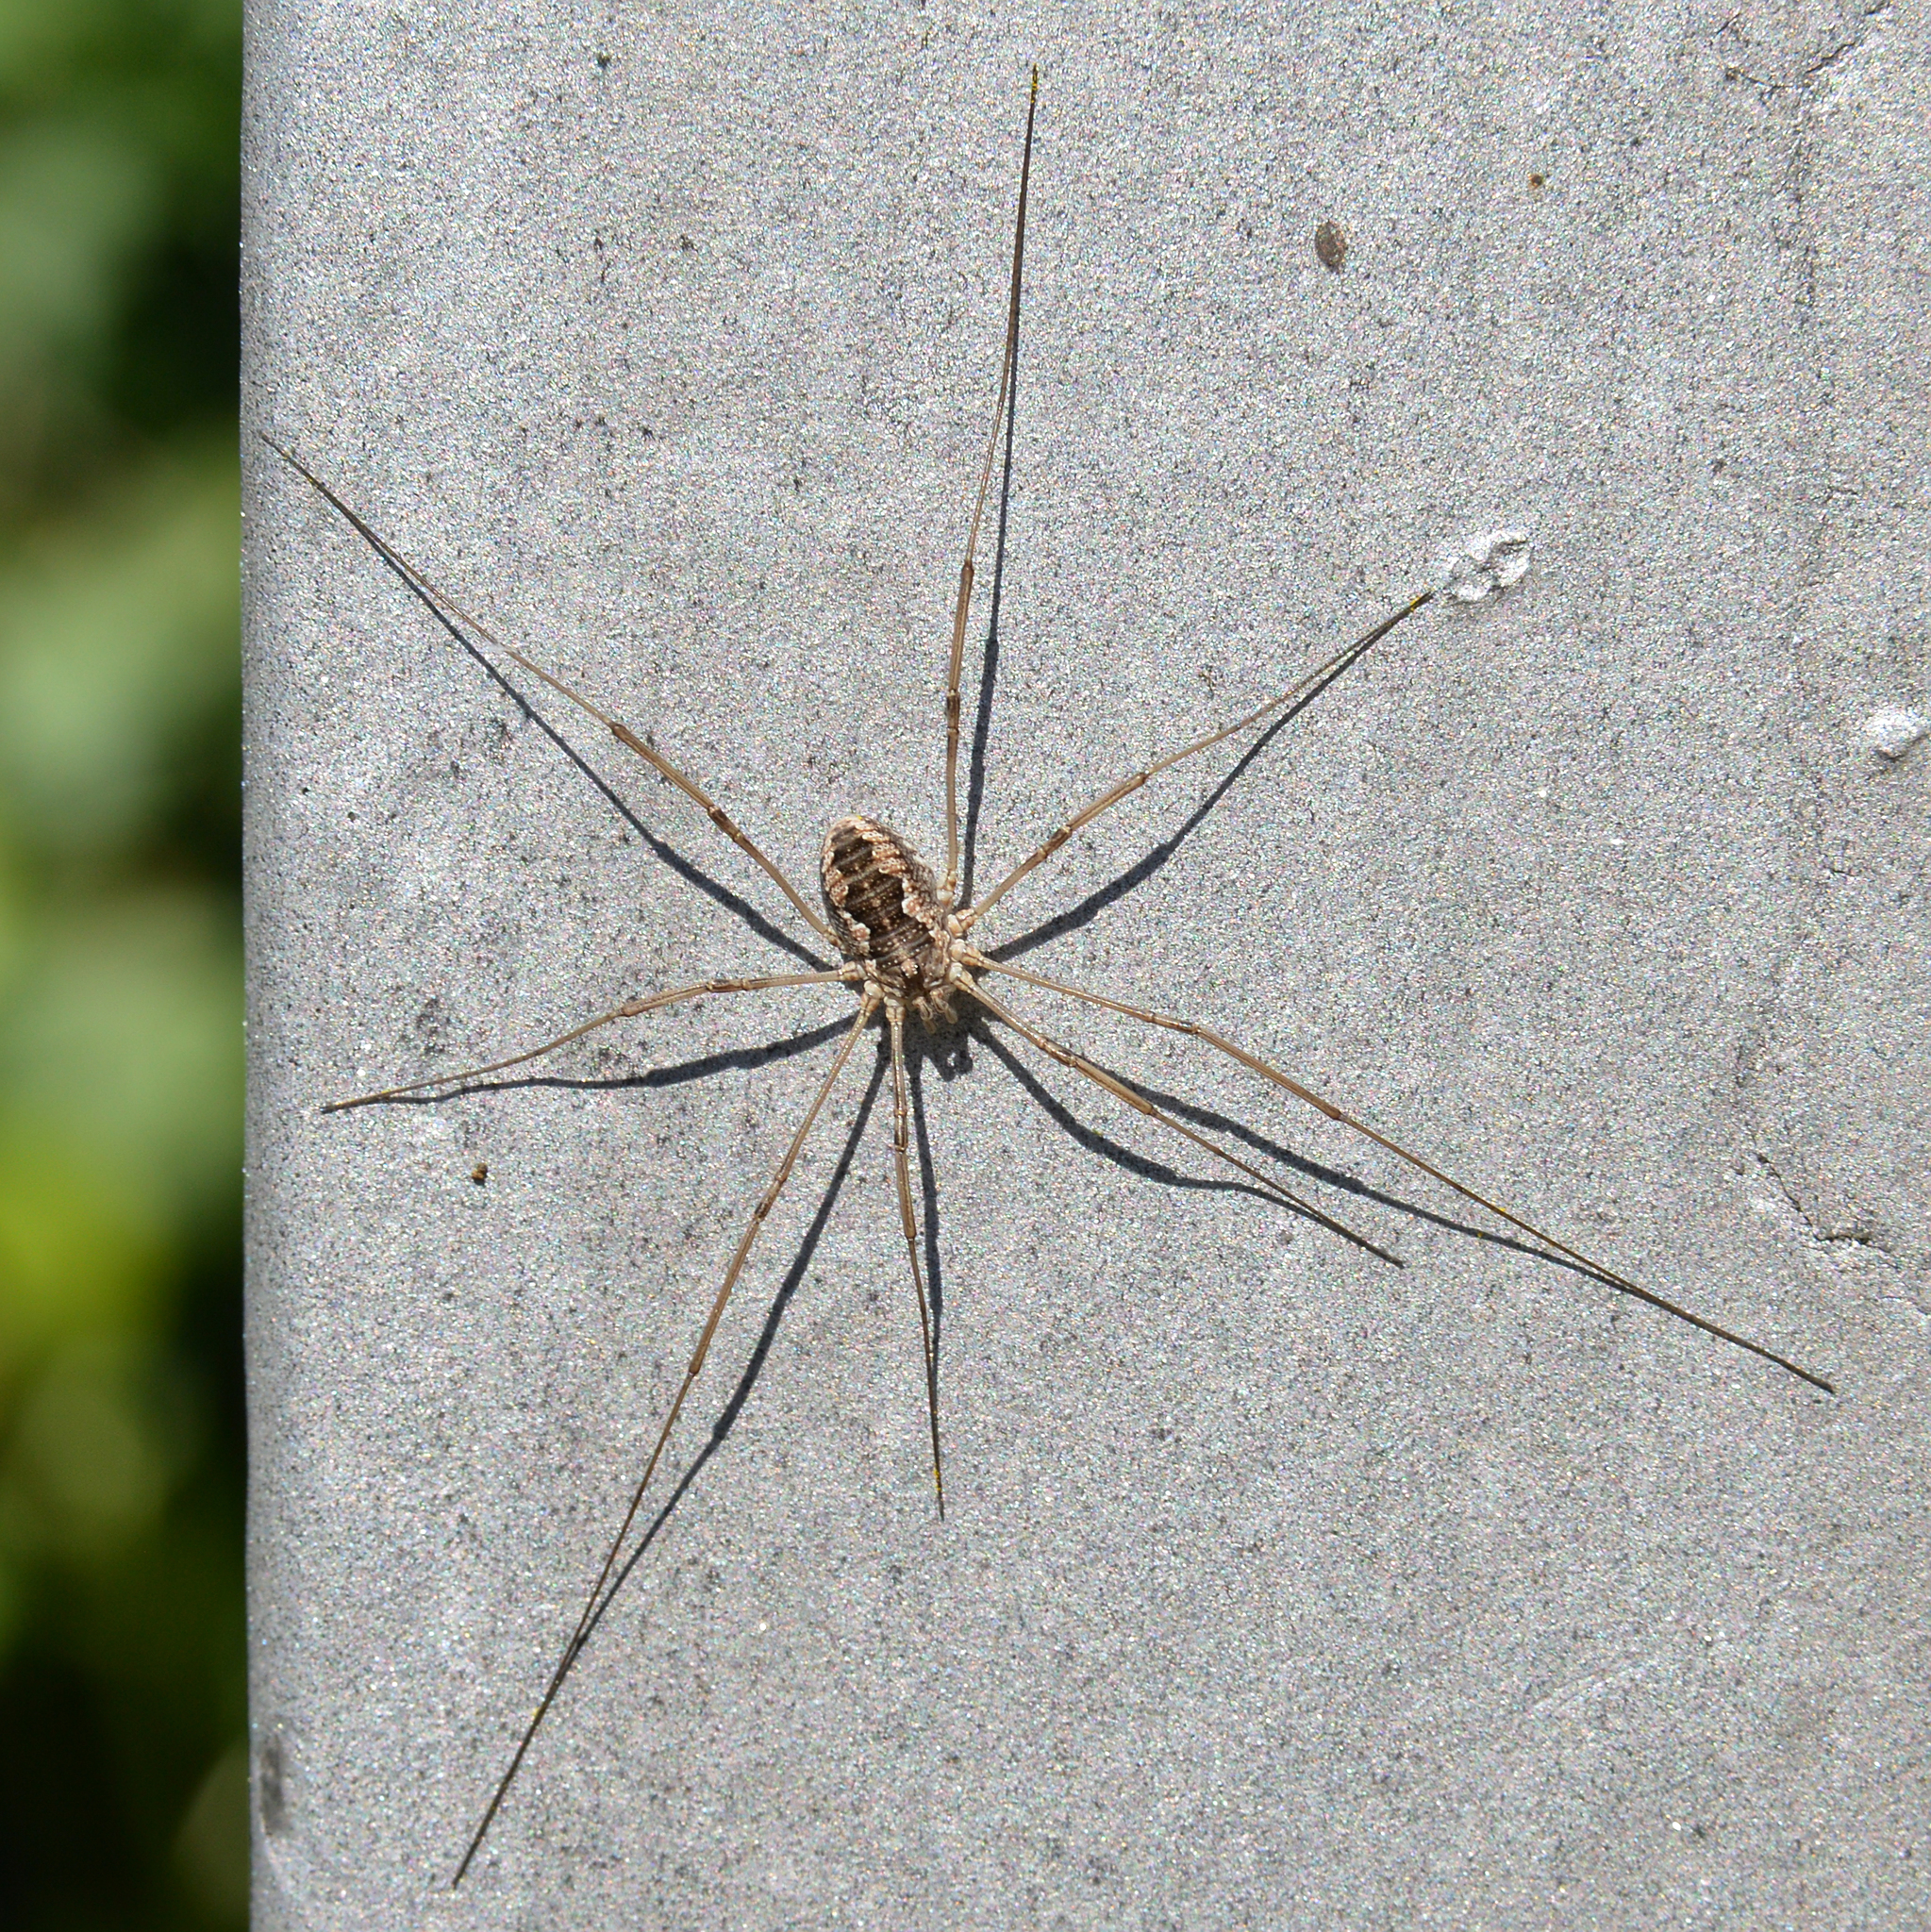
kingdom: Animalia
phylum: Arthropoda
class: Arachnida
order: Opiliones
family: Phalangiidae
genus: Phalangium
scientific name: Phalangium opilio
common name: Daddy longleg
